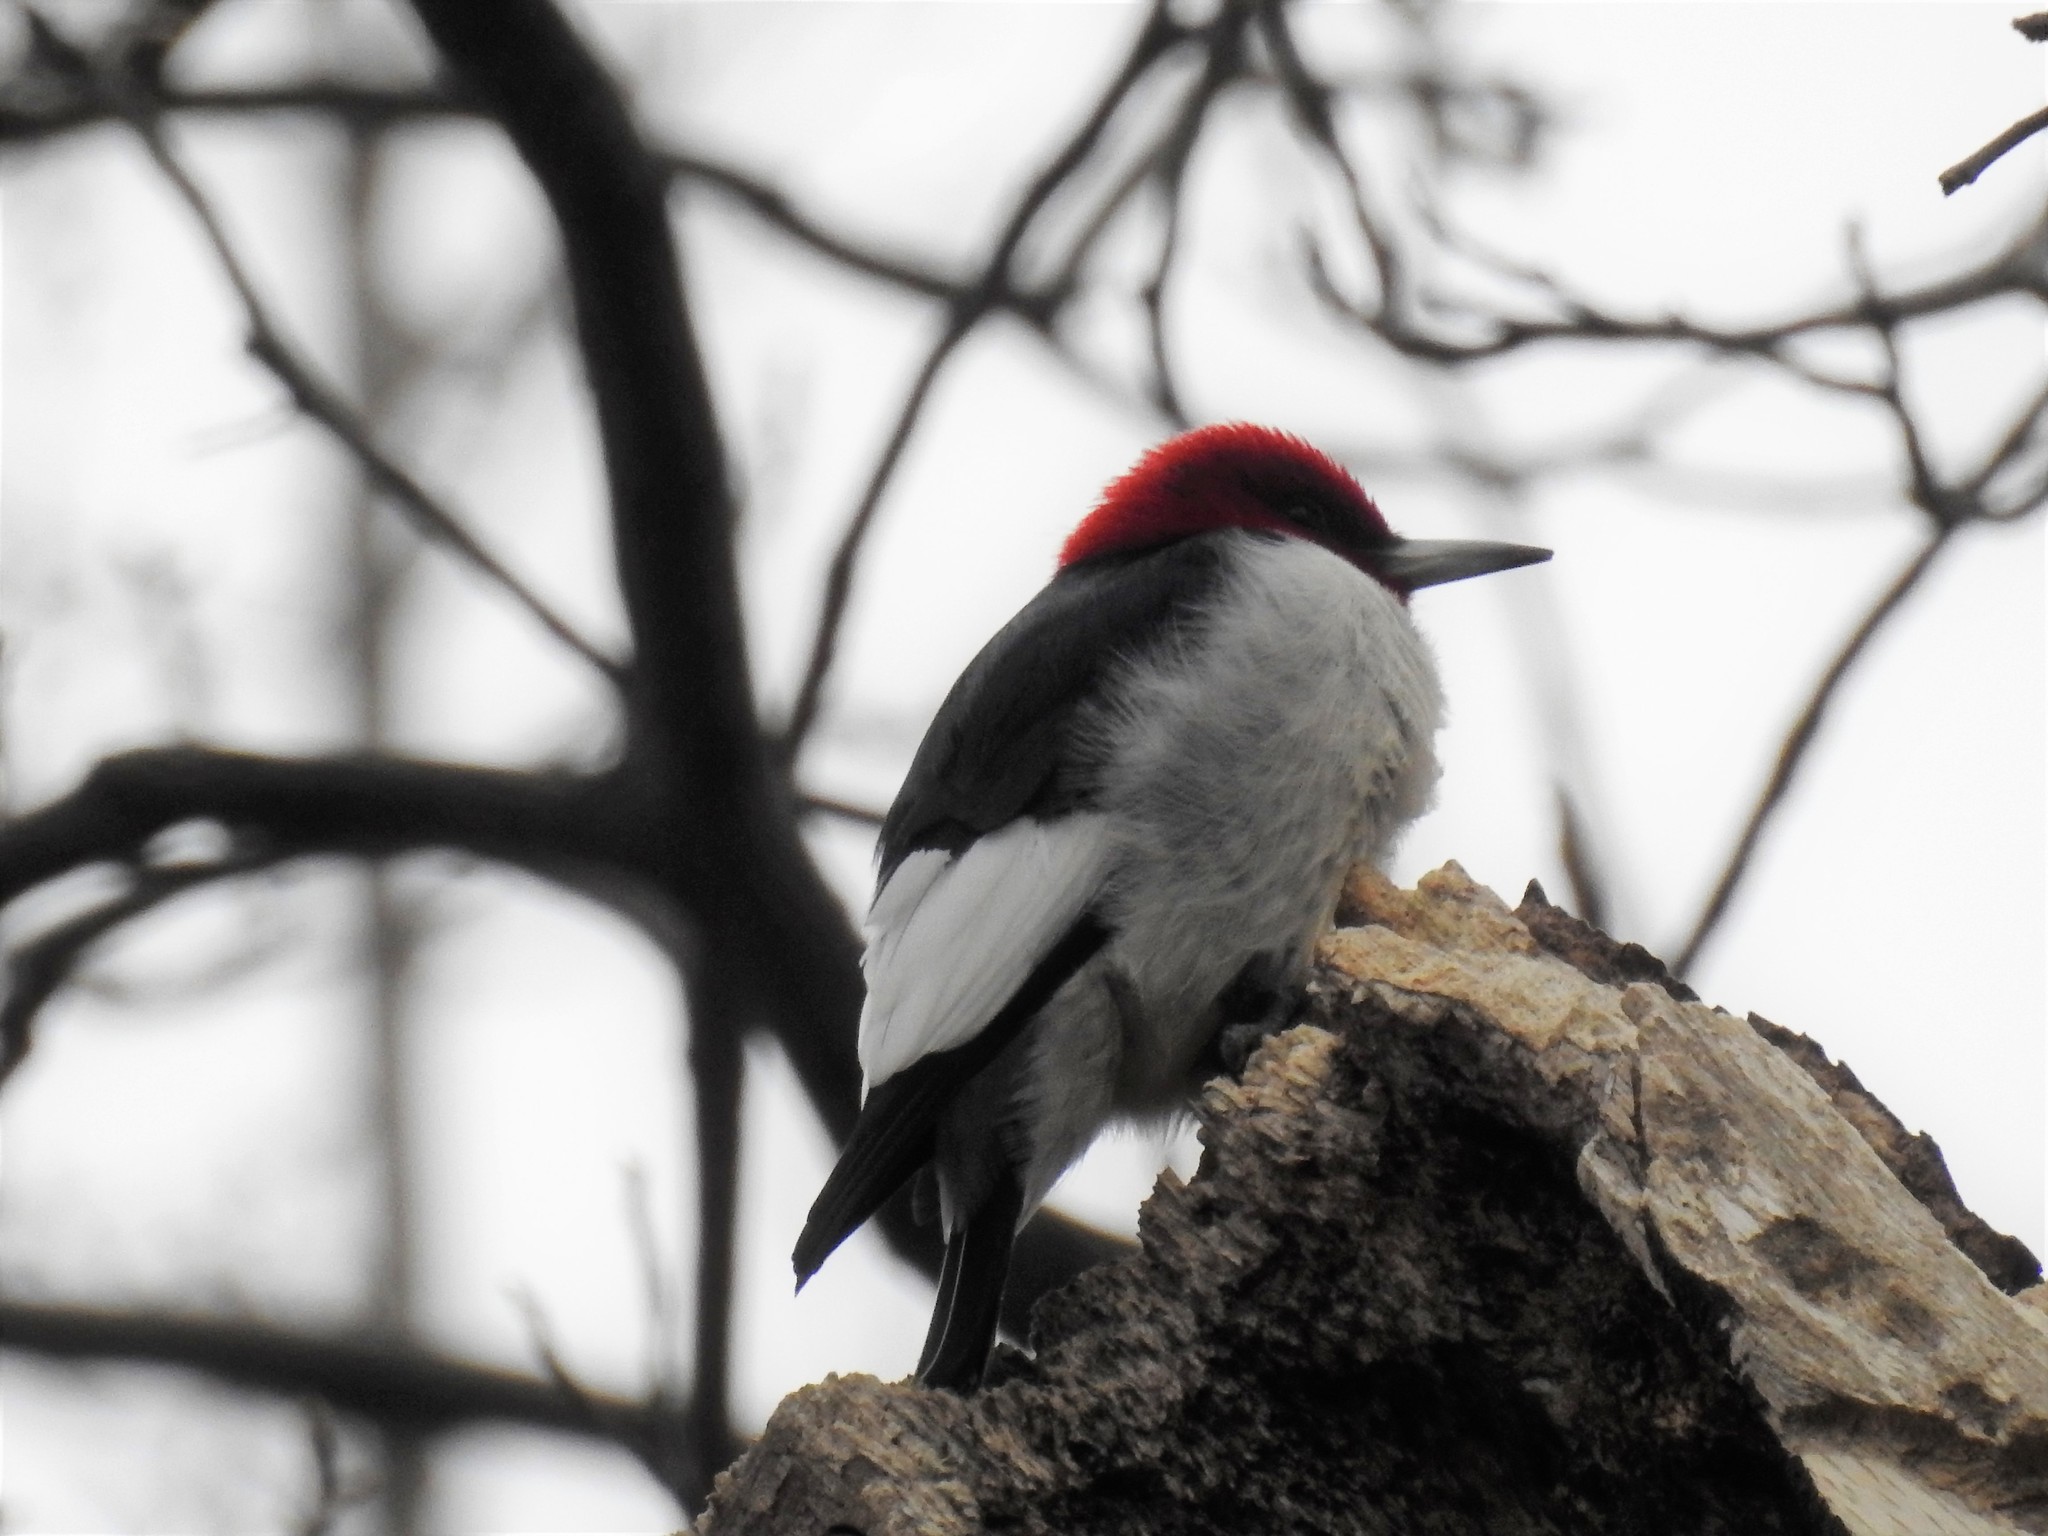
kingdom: Animalia
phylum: Chordata
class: Aves
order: Piciformes
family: Picidae
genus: Melanerpes
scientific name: Melanerpes erythrocephalus
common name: Red-headed woodpecker
